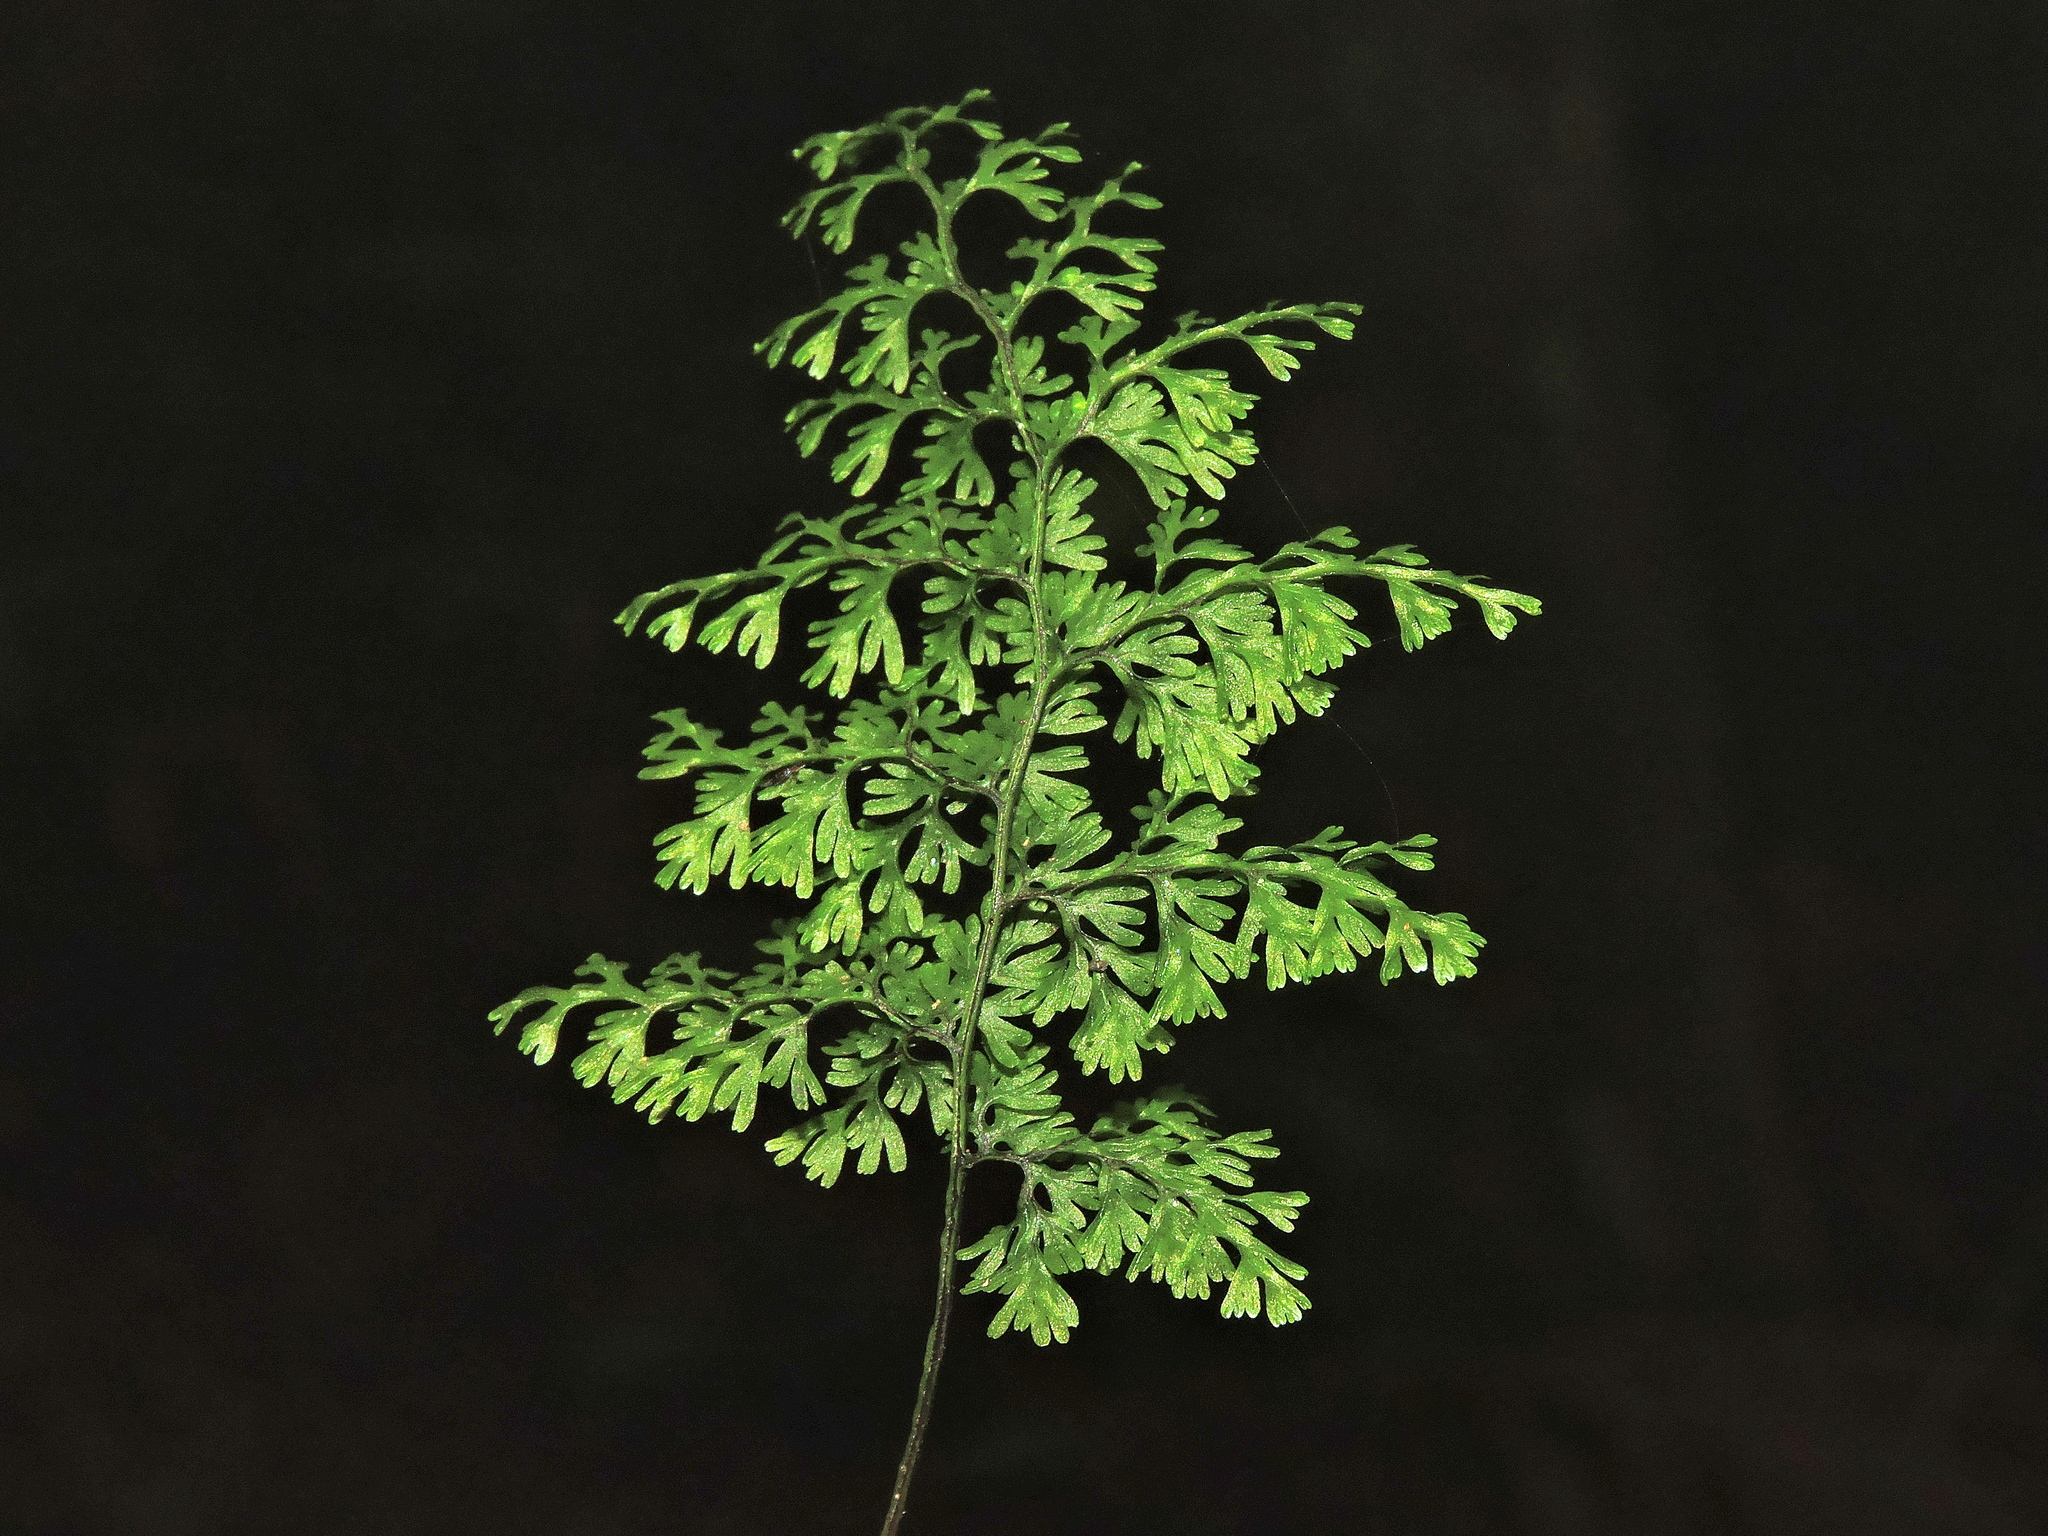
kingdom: Plantae
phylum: Tracheophyta
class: Polypodiopsida
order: Hymenophyllales
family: Hymenophyllaceae
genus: Callistopteris
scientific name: Callistopteris polyantha
